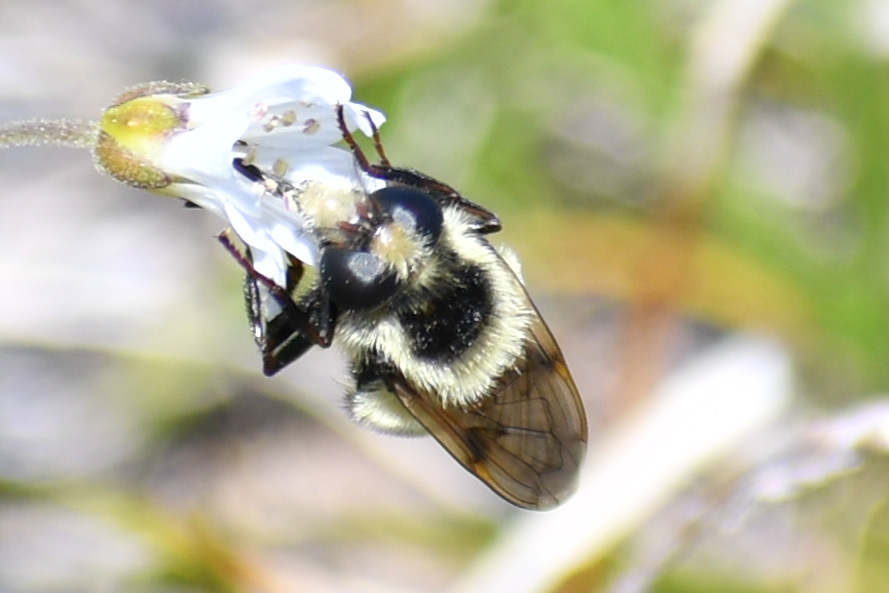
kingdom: Animalia
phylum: Arthropoda
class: Insecta
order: Diptera
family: Syrphidae
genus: Volucella
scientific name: Volucella facialis
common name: Yellow-faced swiftwing
